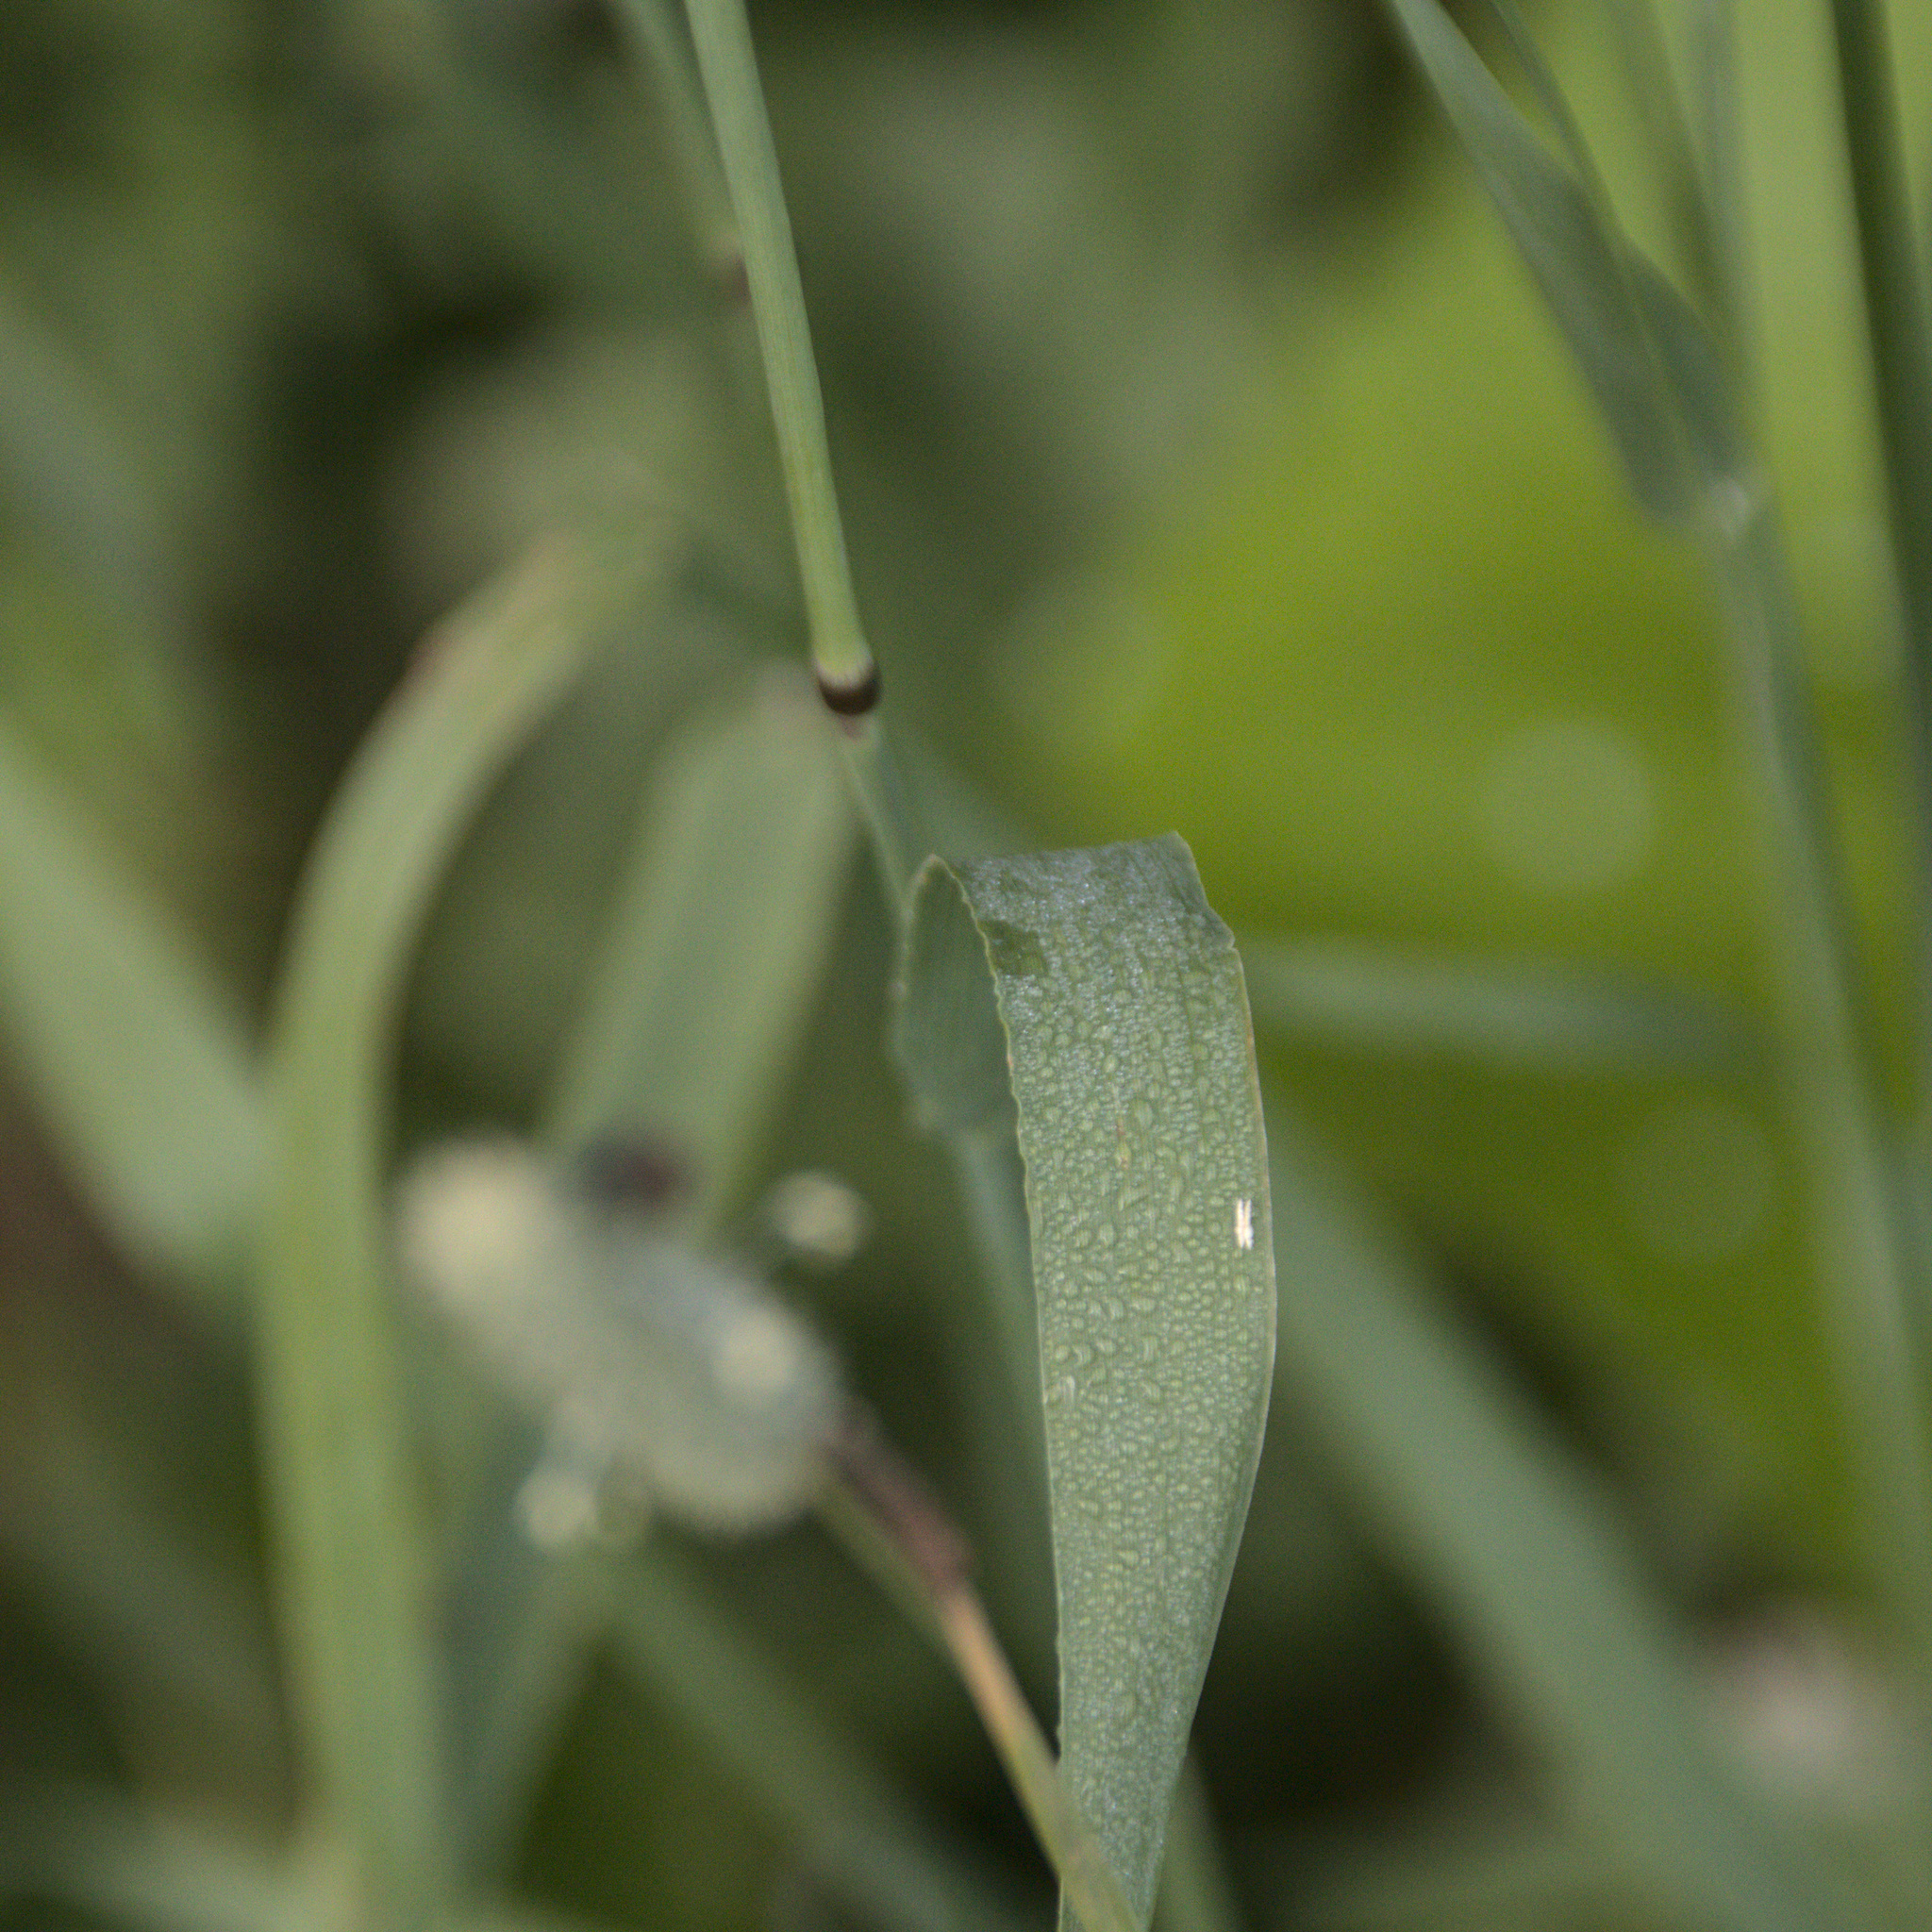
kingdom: Plantae
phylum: Tracheophyta
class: Liliopsida
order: Poales
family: Poaceae
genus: Phleum
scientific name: Phleum pratense
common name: Timothy grass
